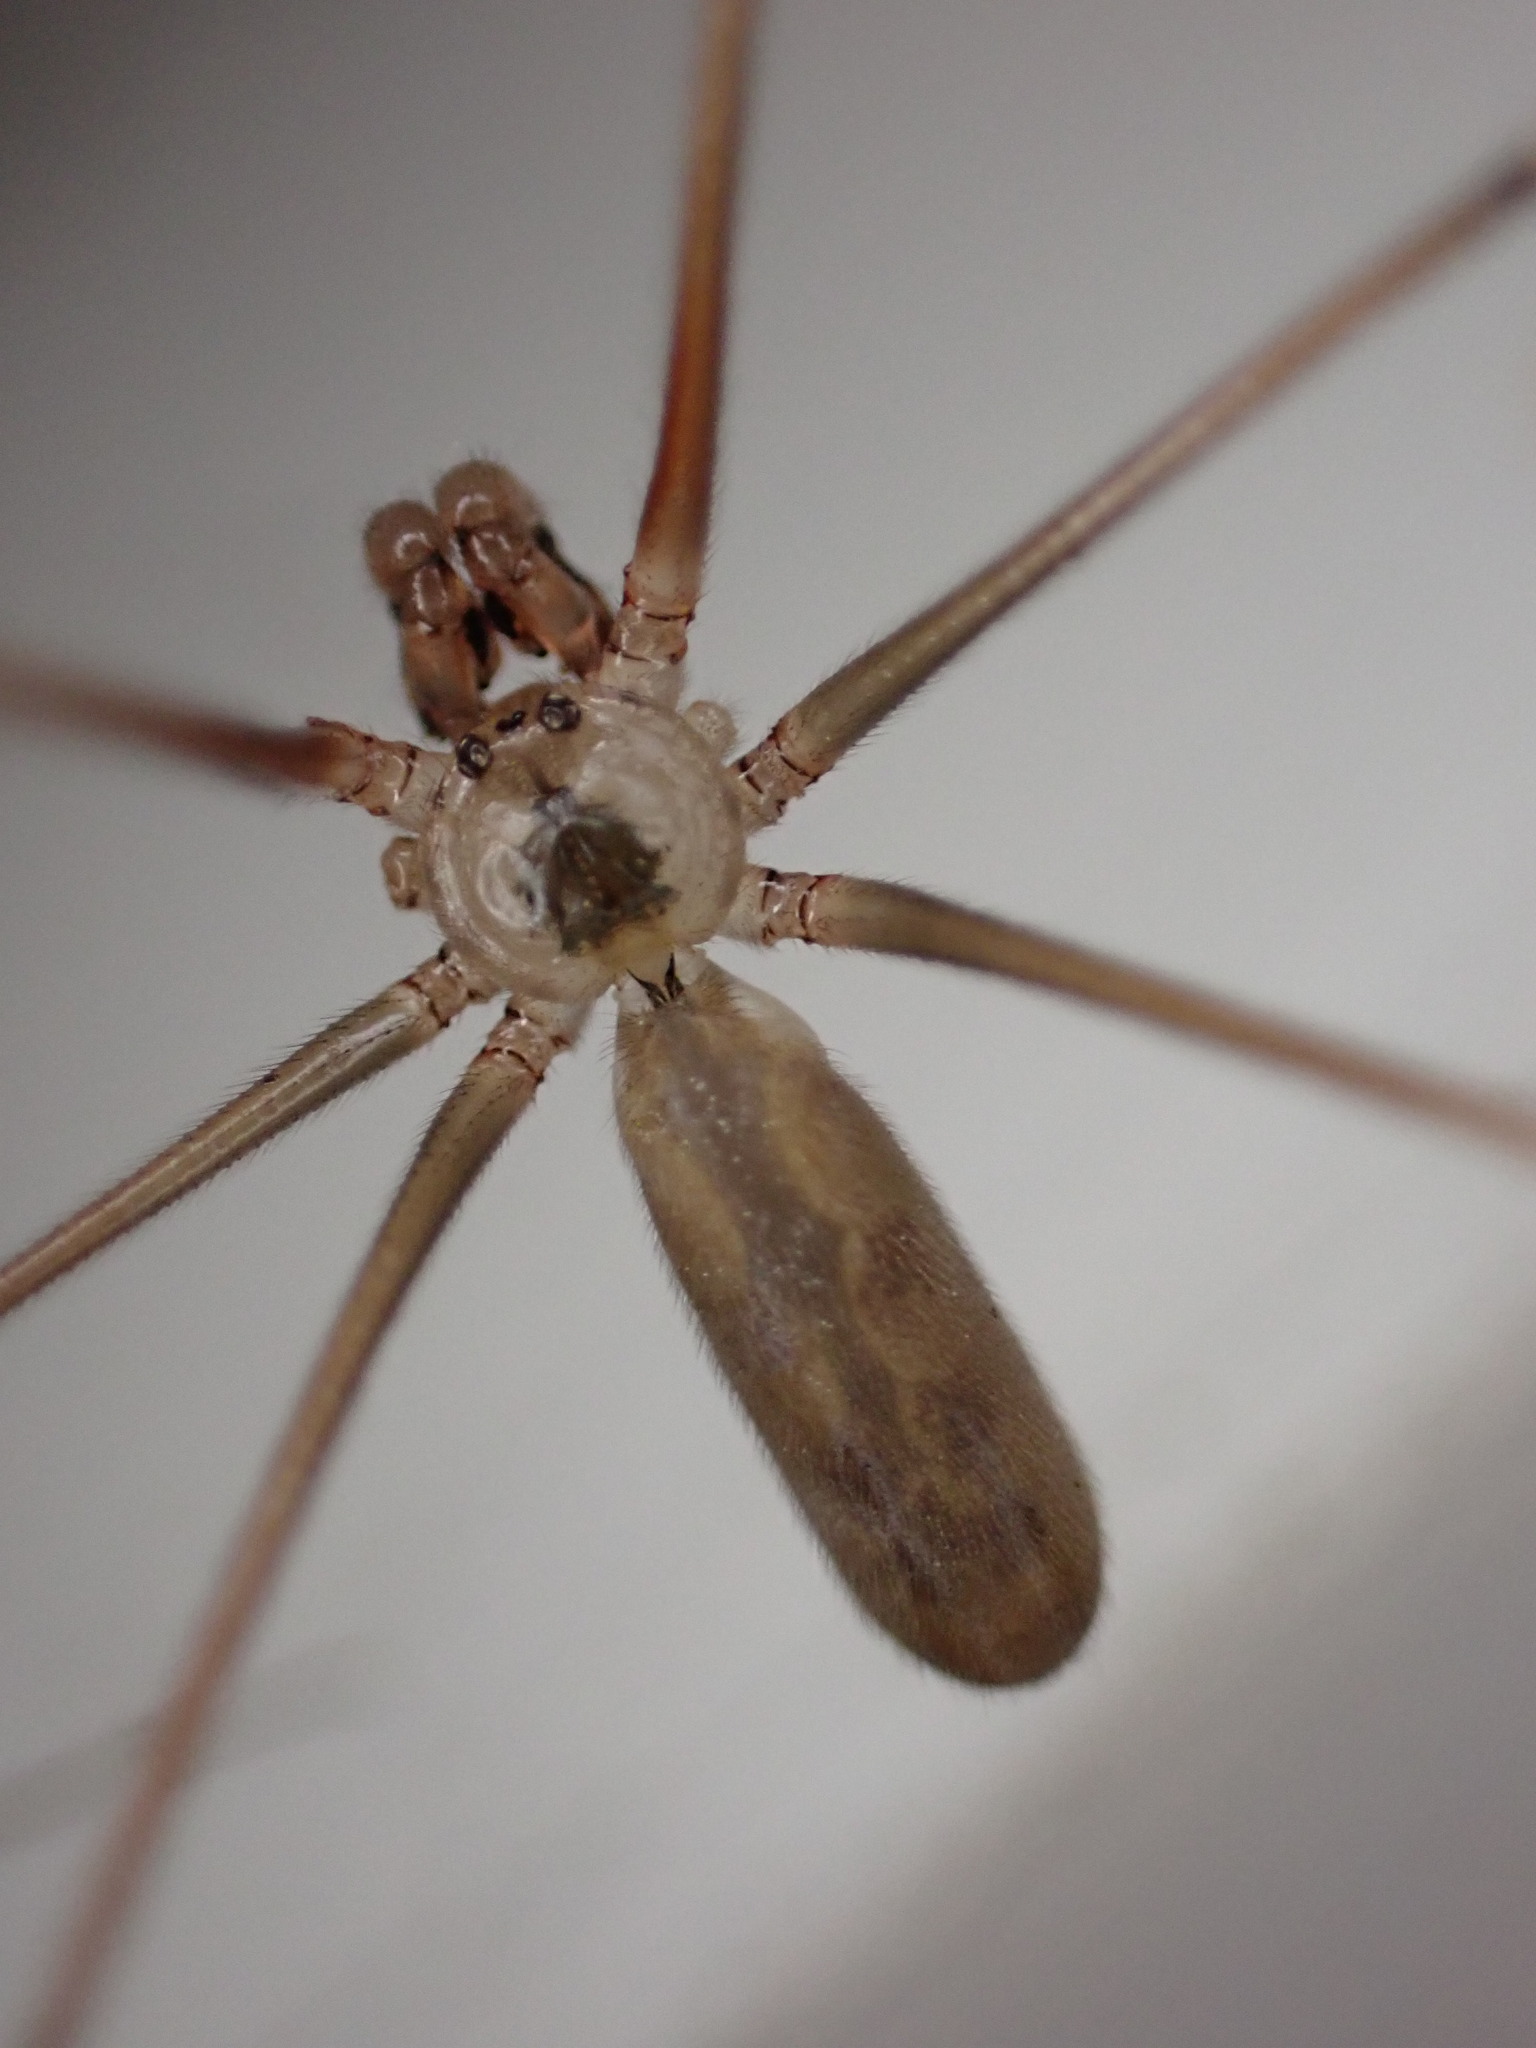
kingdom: Animalia
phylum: Arthropoda
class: Arachnida
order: Araneae
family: Pholcidae
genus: Pholcus
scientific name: Pholcus phalangioides
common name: Longbodied cellar spider
